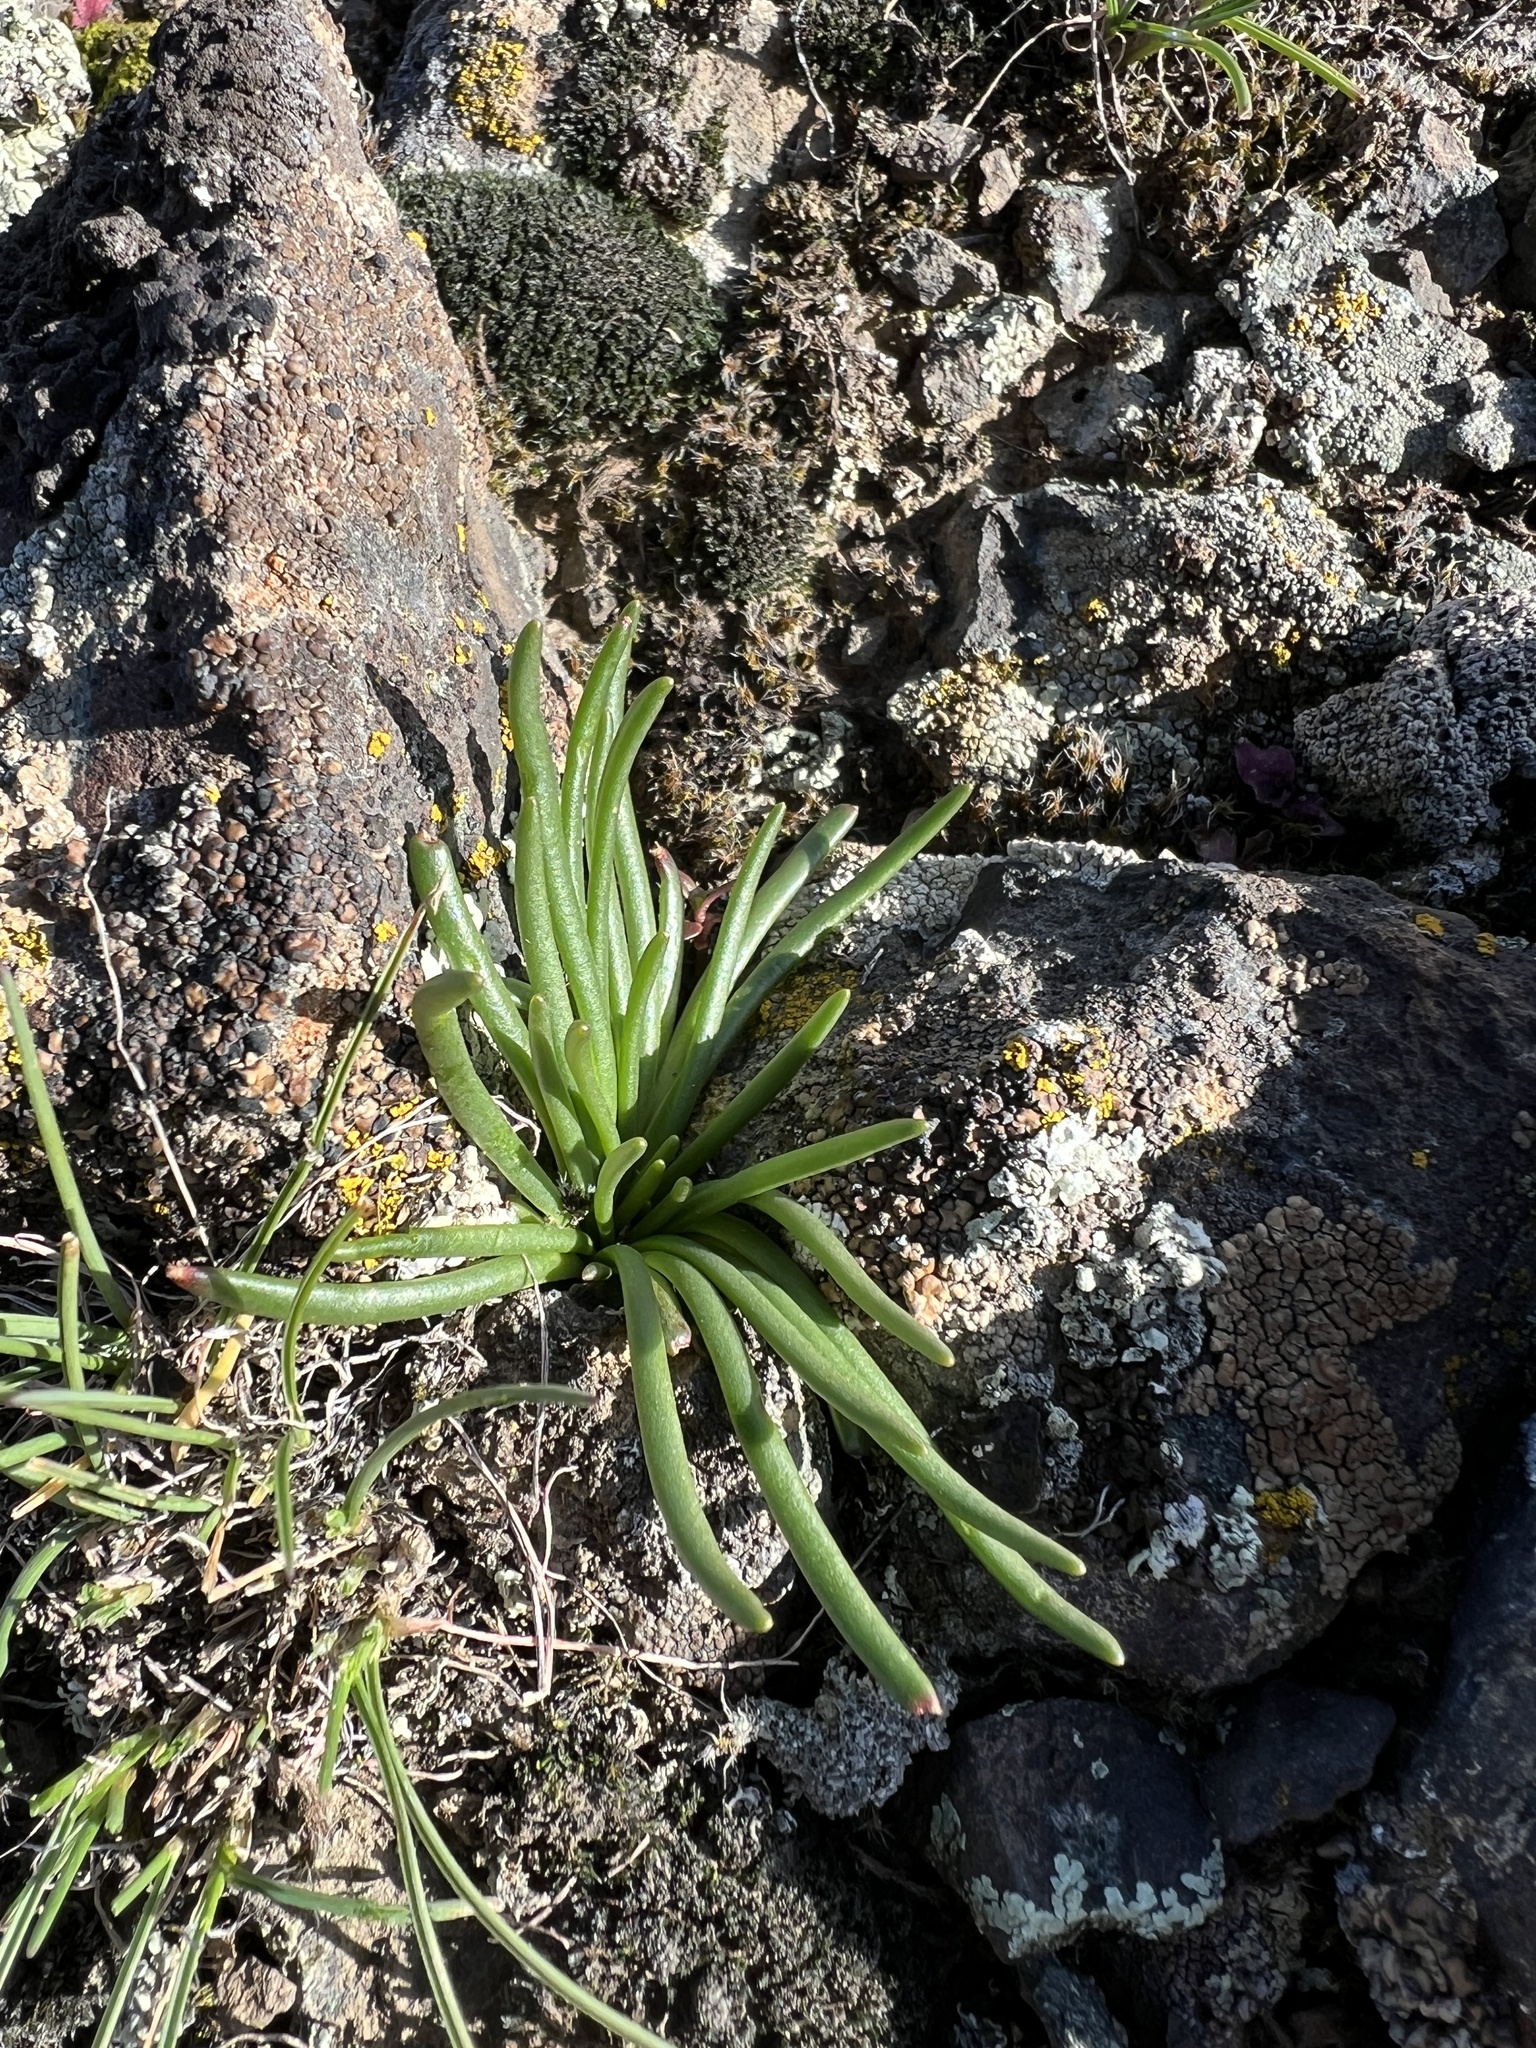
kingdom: Plantae
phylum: Tracheophyta
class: Magnoliopsida
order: Caryophyllales
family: Montiaceae
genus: Lewisia
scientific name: Lewisia rediviva
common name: Bitter-root
